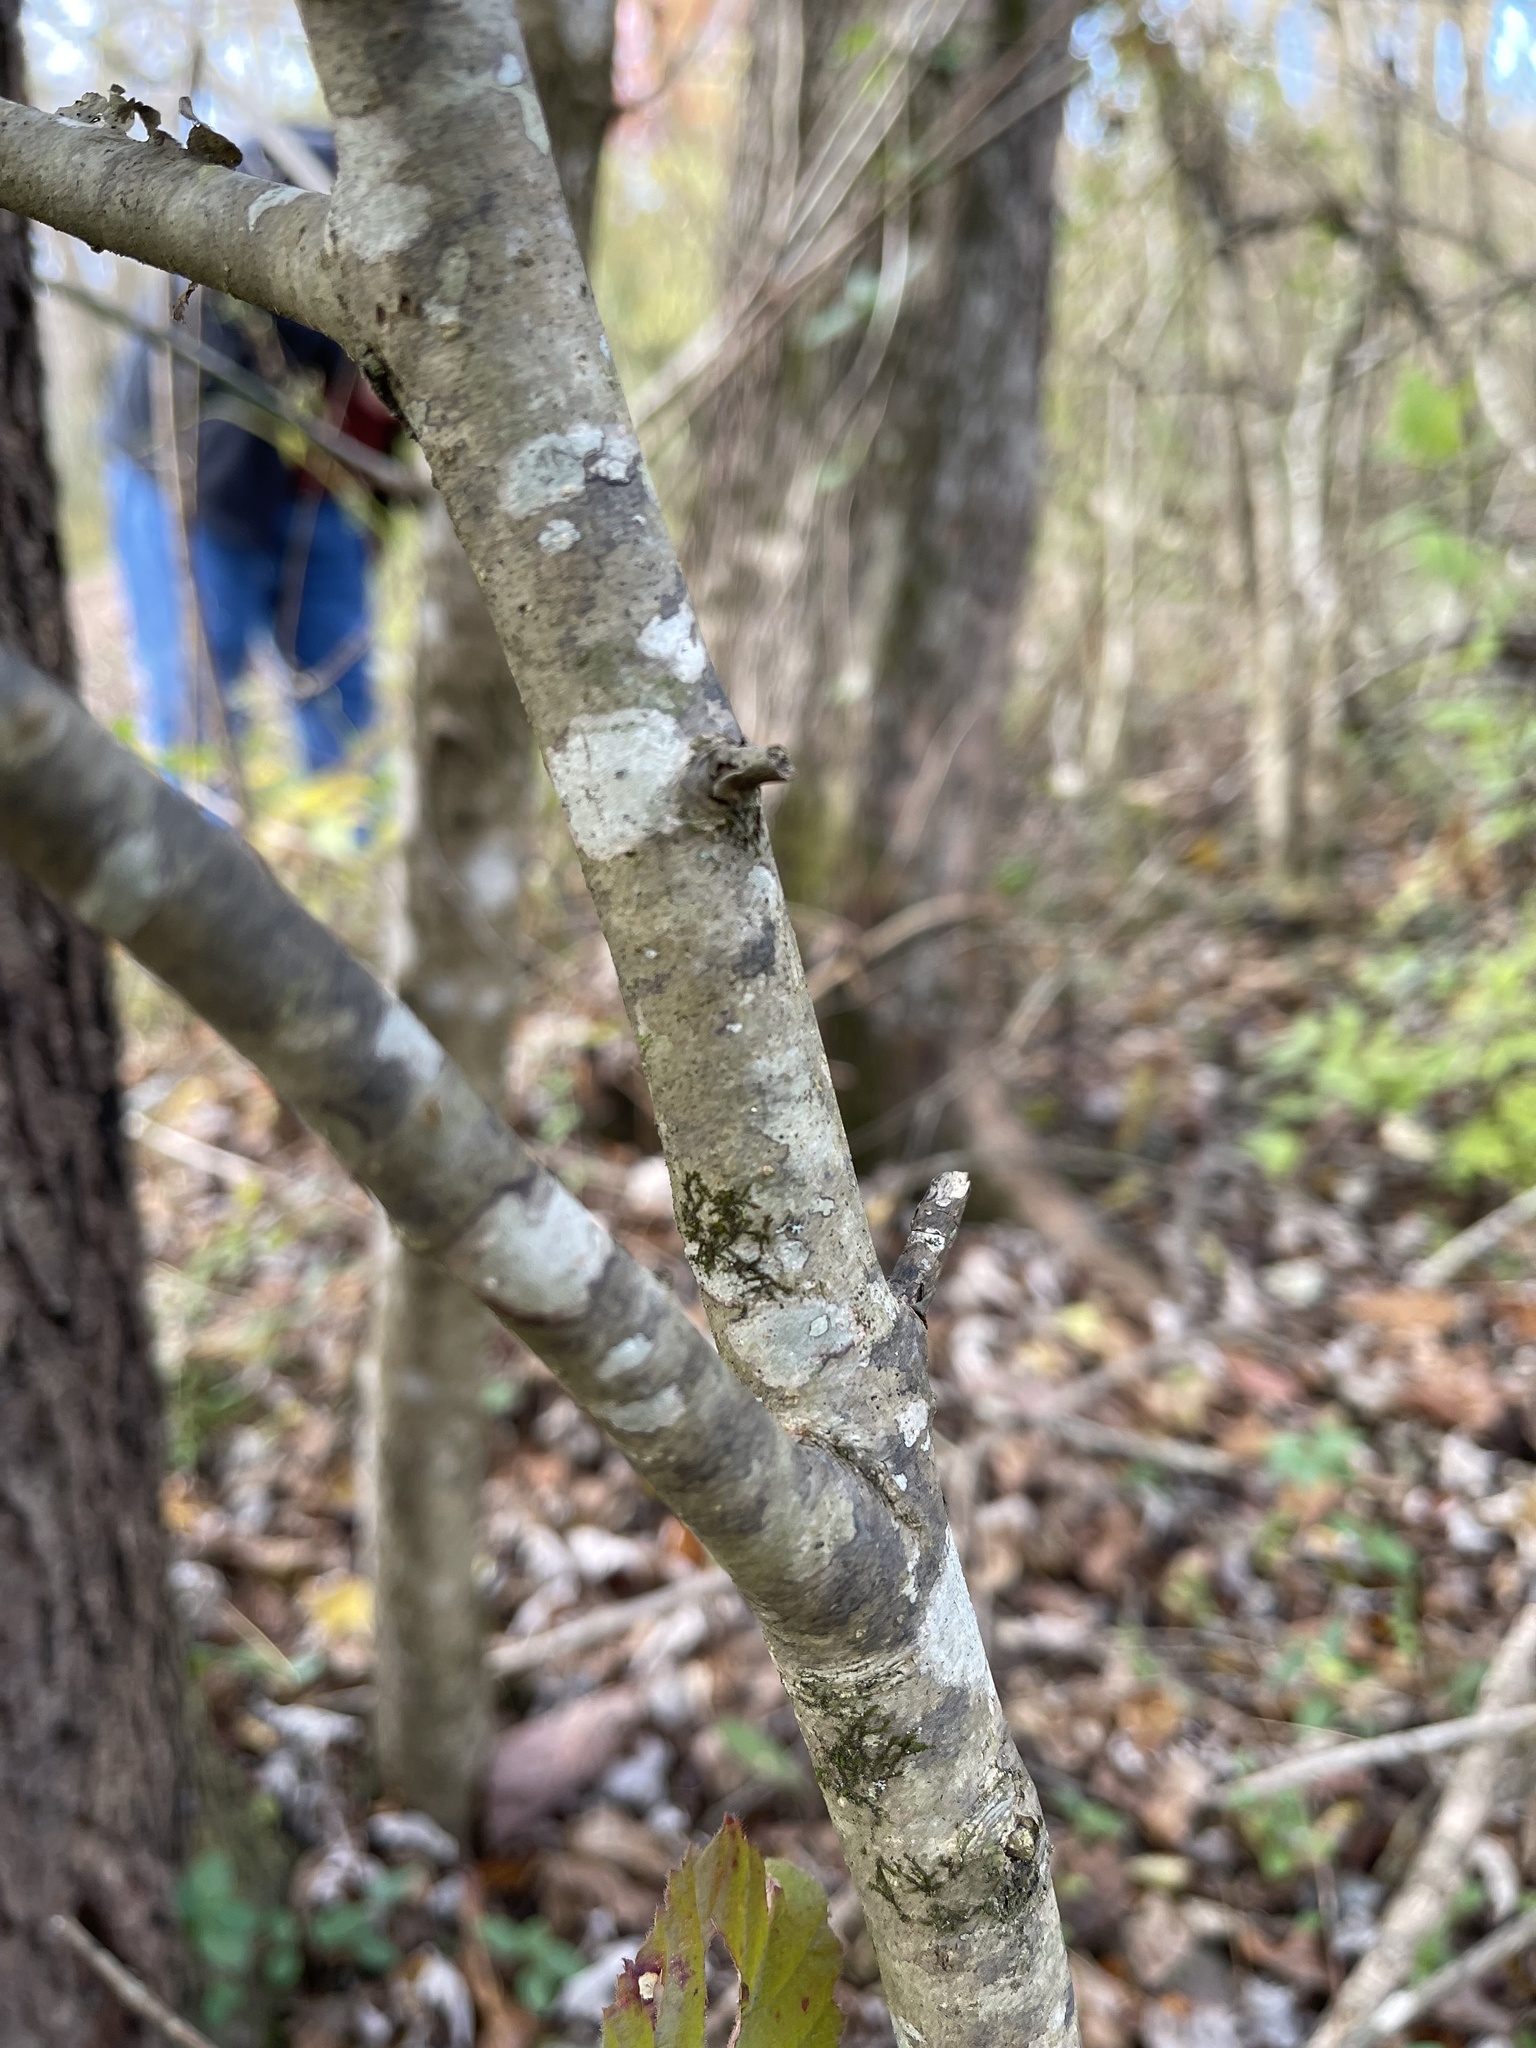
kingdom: Plantae
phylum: Tracheophyta
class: Magnoliopsida
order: Aquifoliales
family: Aquifoliaceae
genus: Ilex
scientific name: Ilex opaca
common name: American holly
